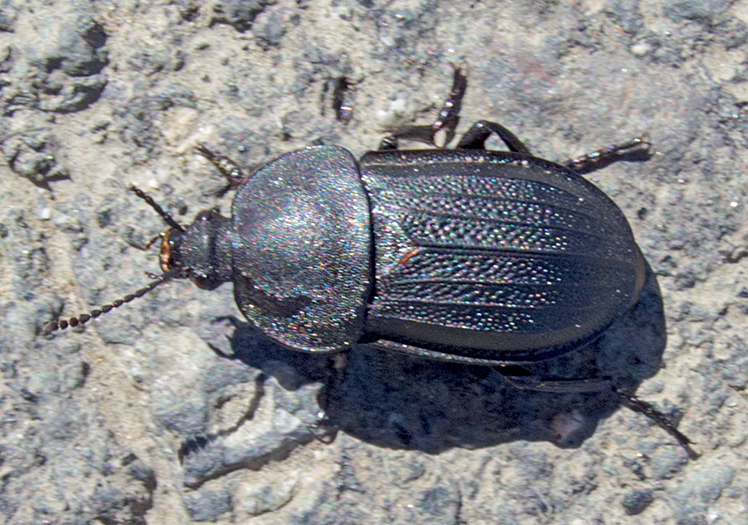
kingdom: Animalia
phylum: Arthropoda
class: Insecta
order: Coleoptera
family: Staphylinidae
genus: Silpha
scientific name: Silpha obscura
